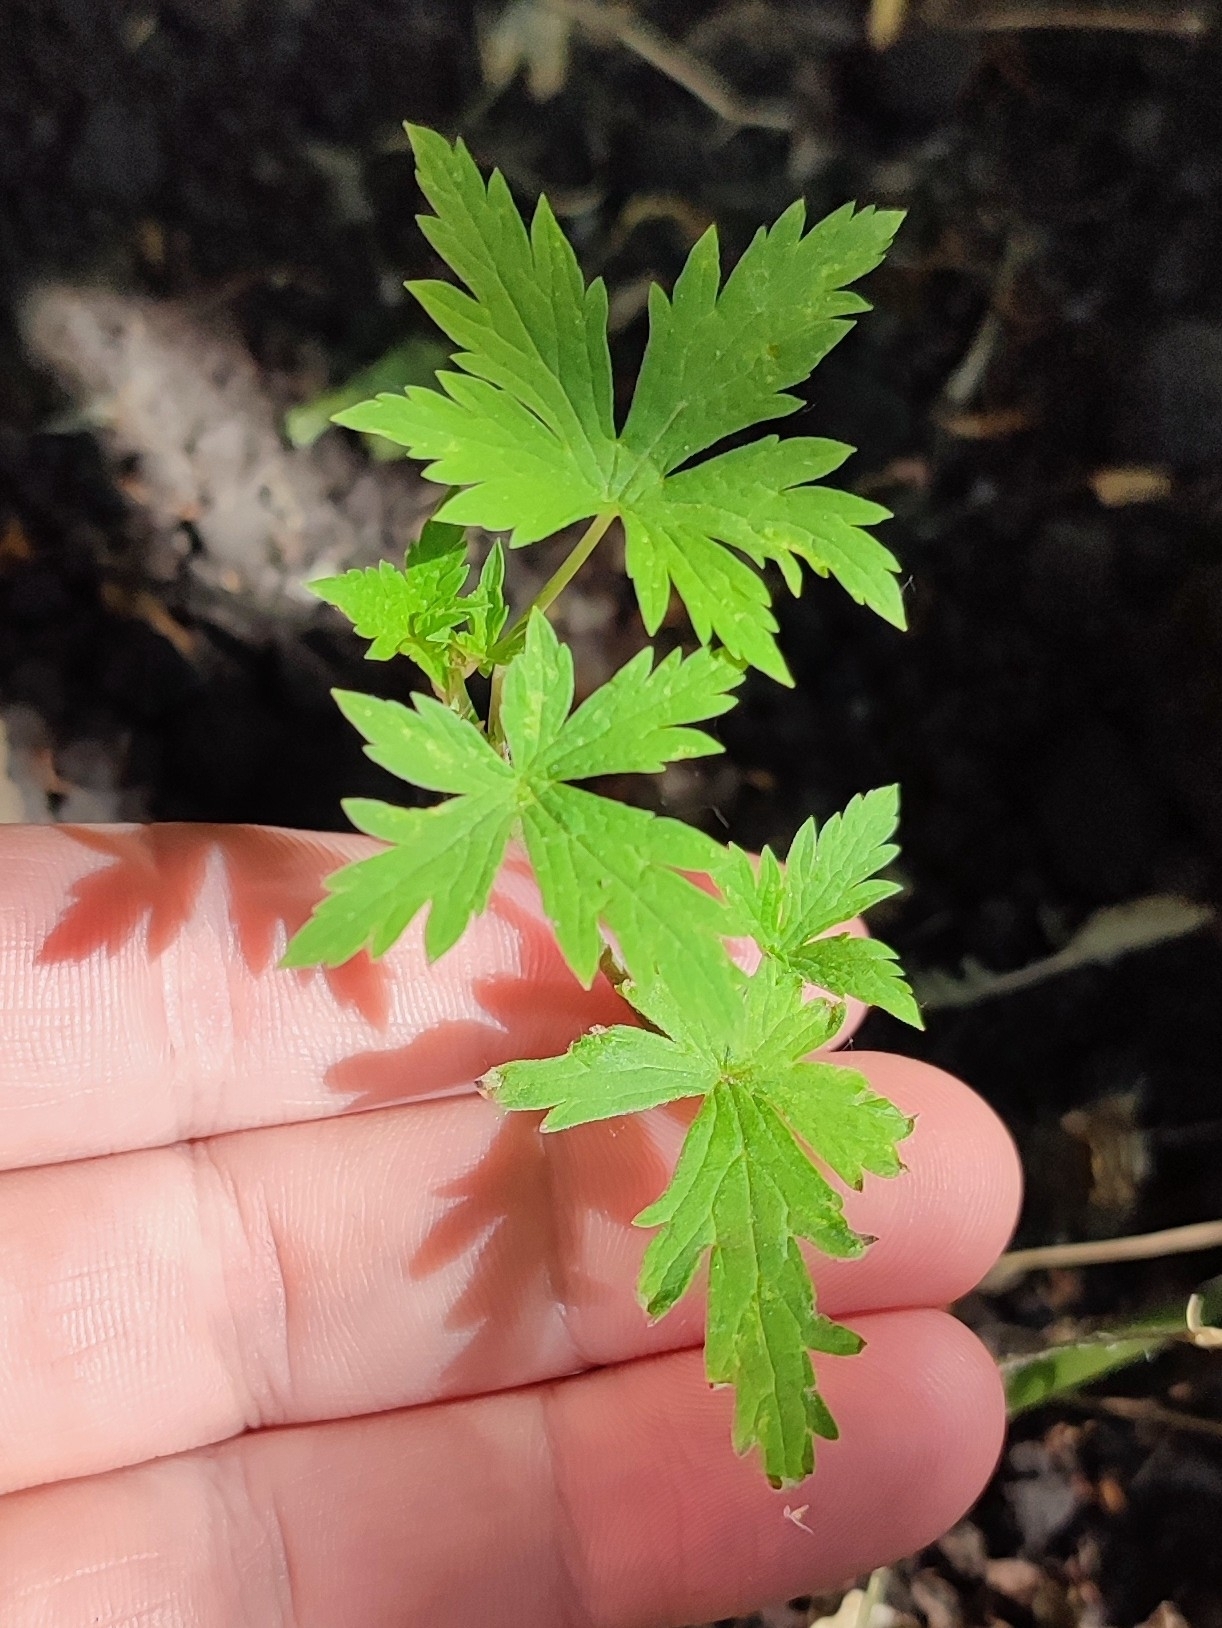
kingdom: Plantae
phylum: Tracheophyta
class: Magnoliopsida
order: Geraniales
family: Geraniaceae
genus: Geranium
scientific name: Geranium sibiricum
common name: Siberian crane's-bill
